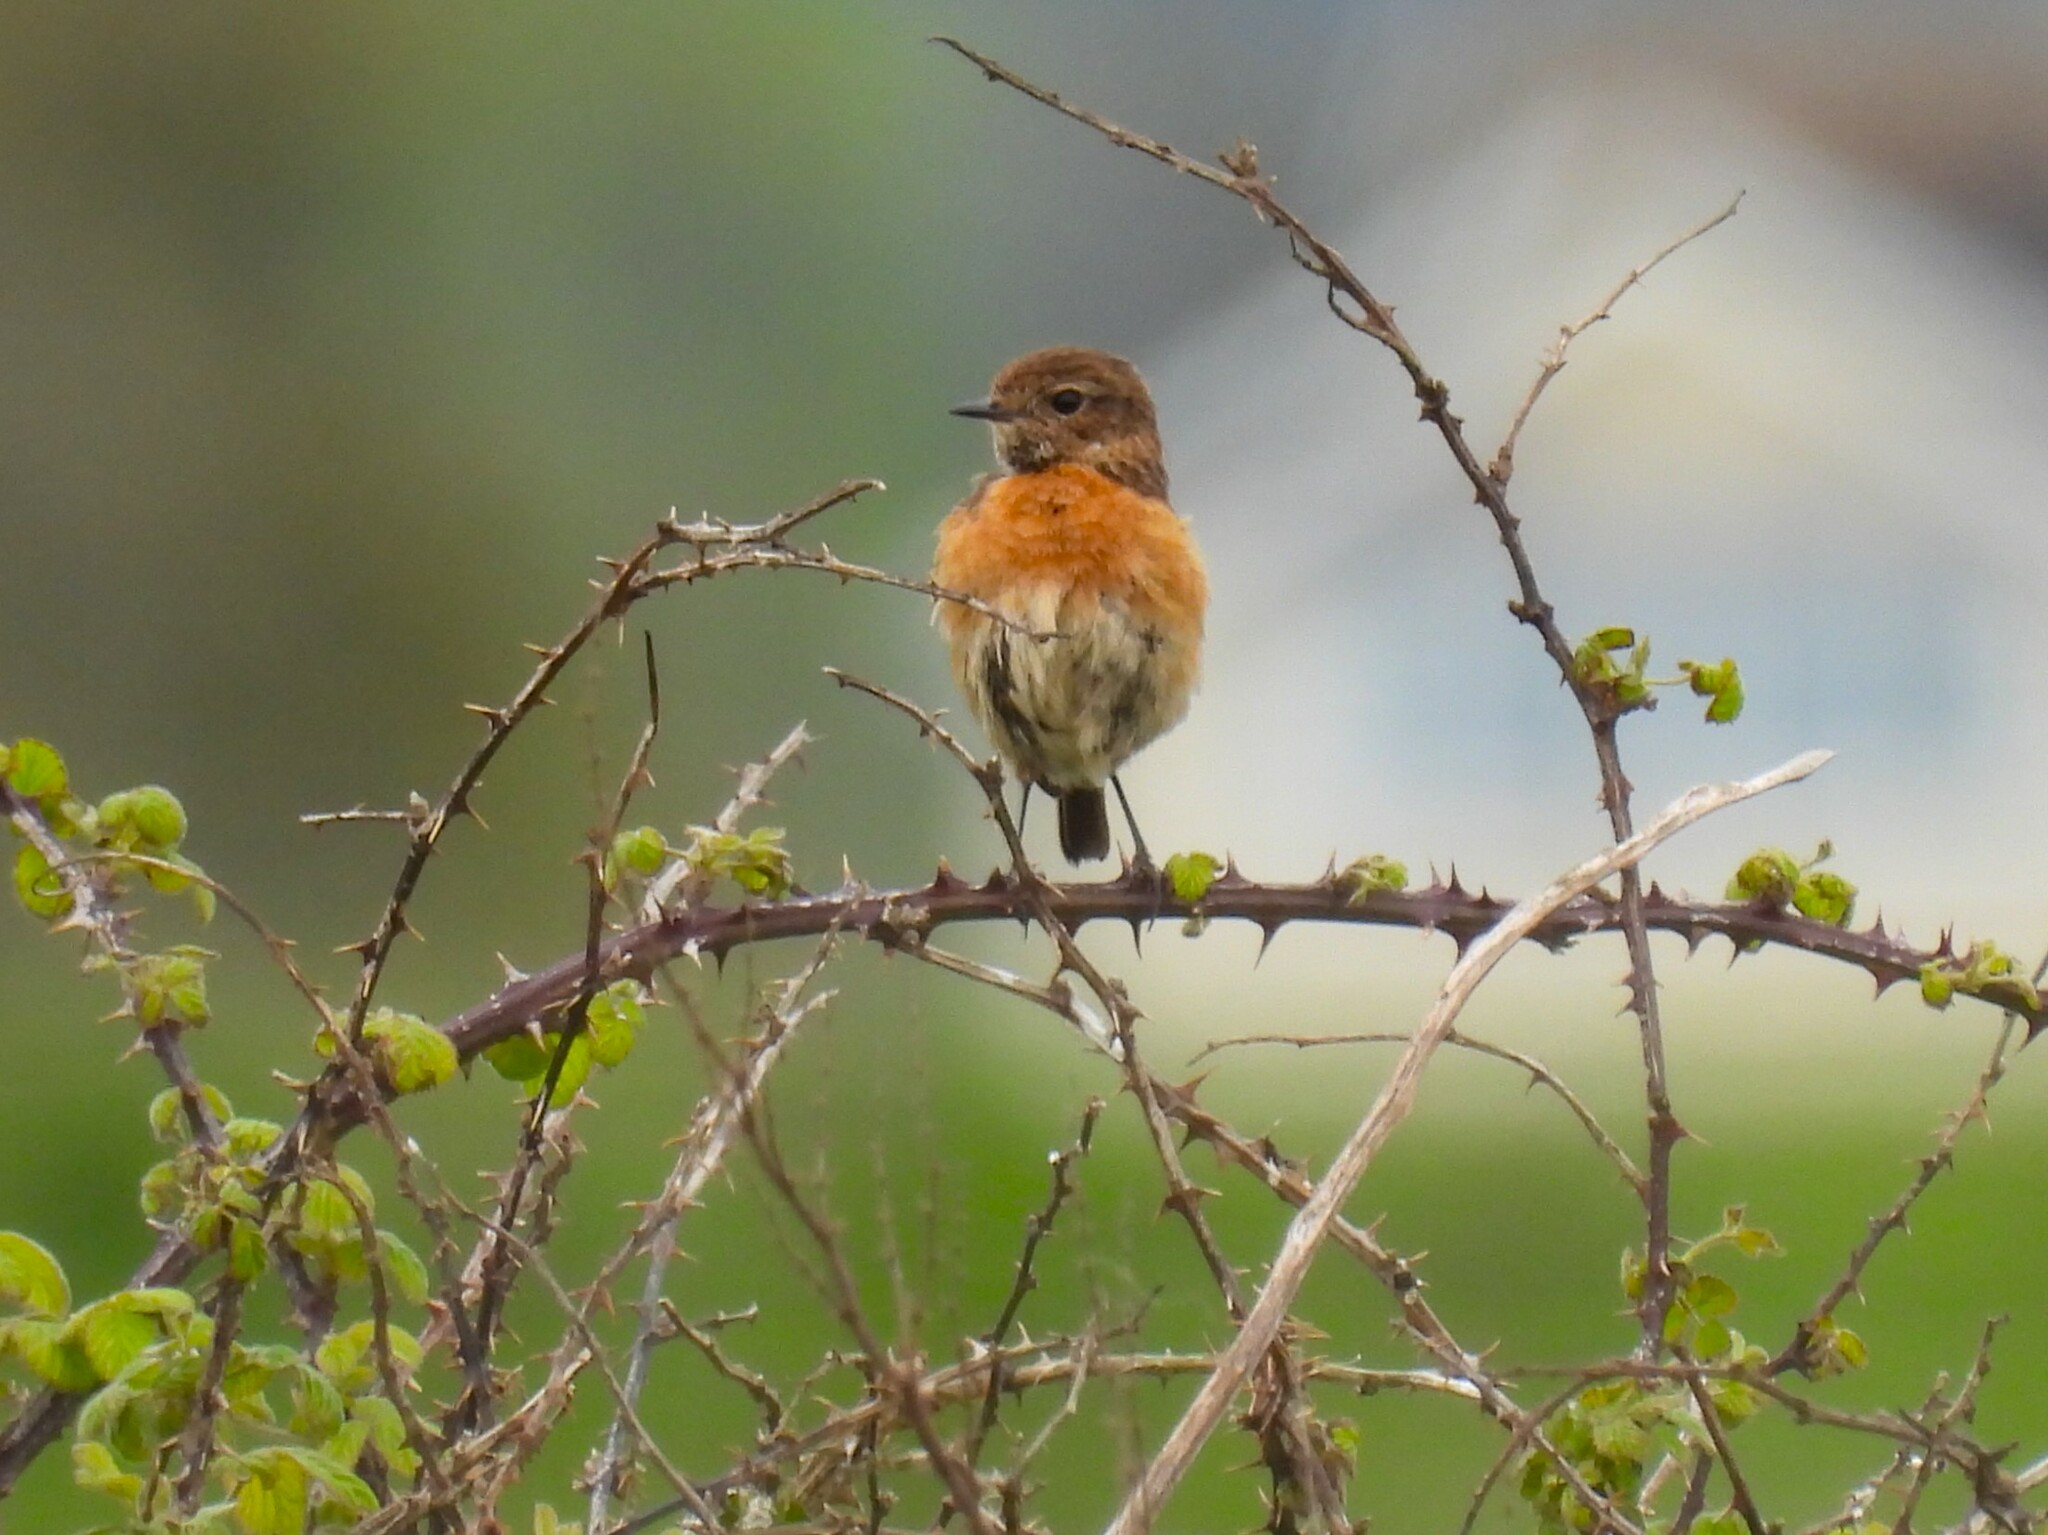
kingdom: Animalia
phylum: Chordata
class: Aves
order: Passeriformes
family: Muscicapidae
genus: Saxicola
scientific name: Saxicola rubicola
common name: European stonechat
